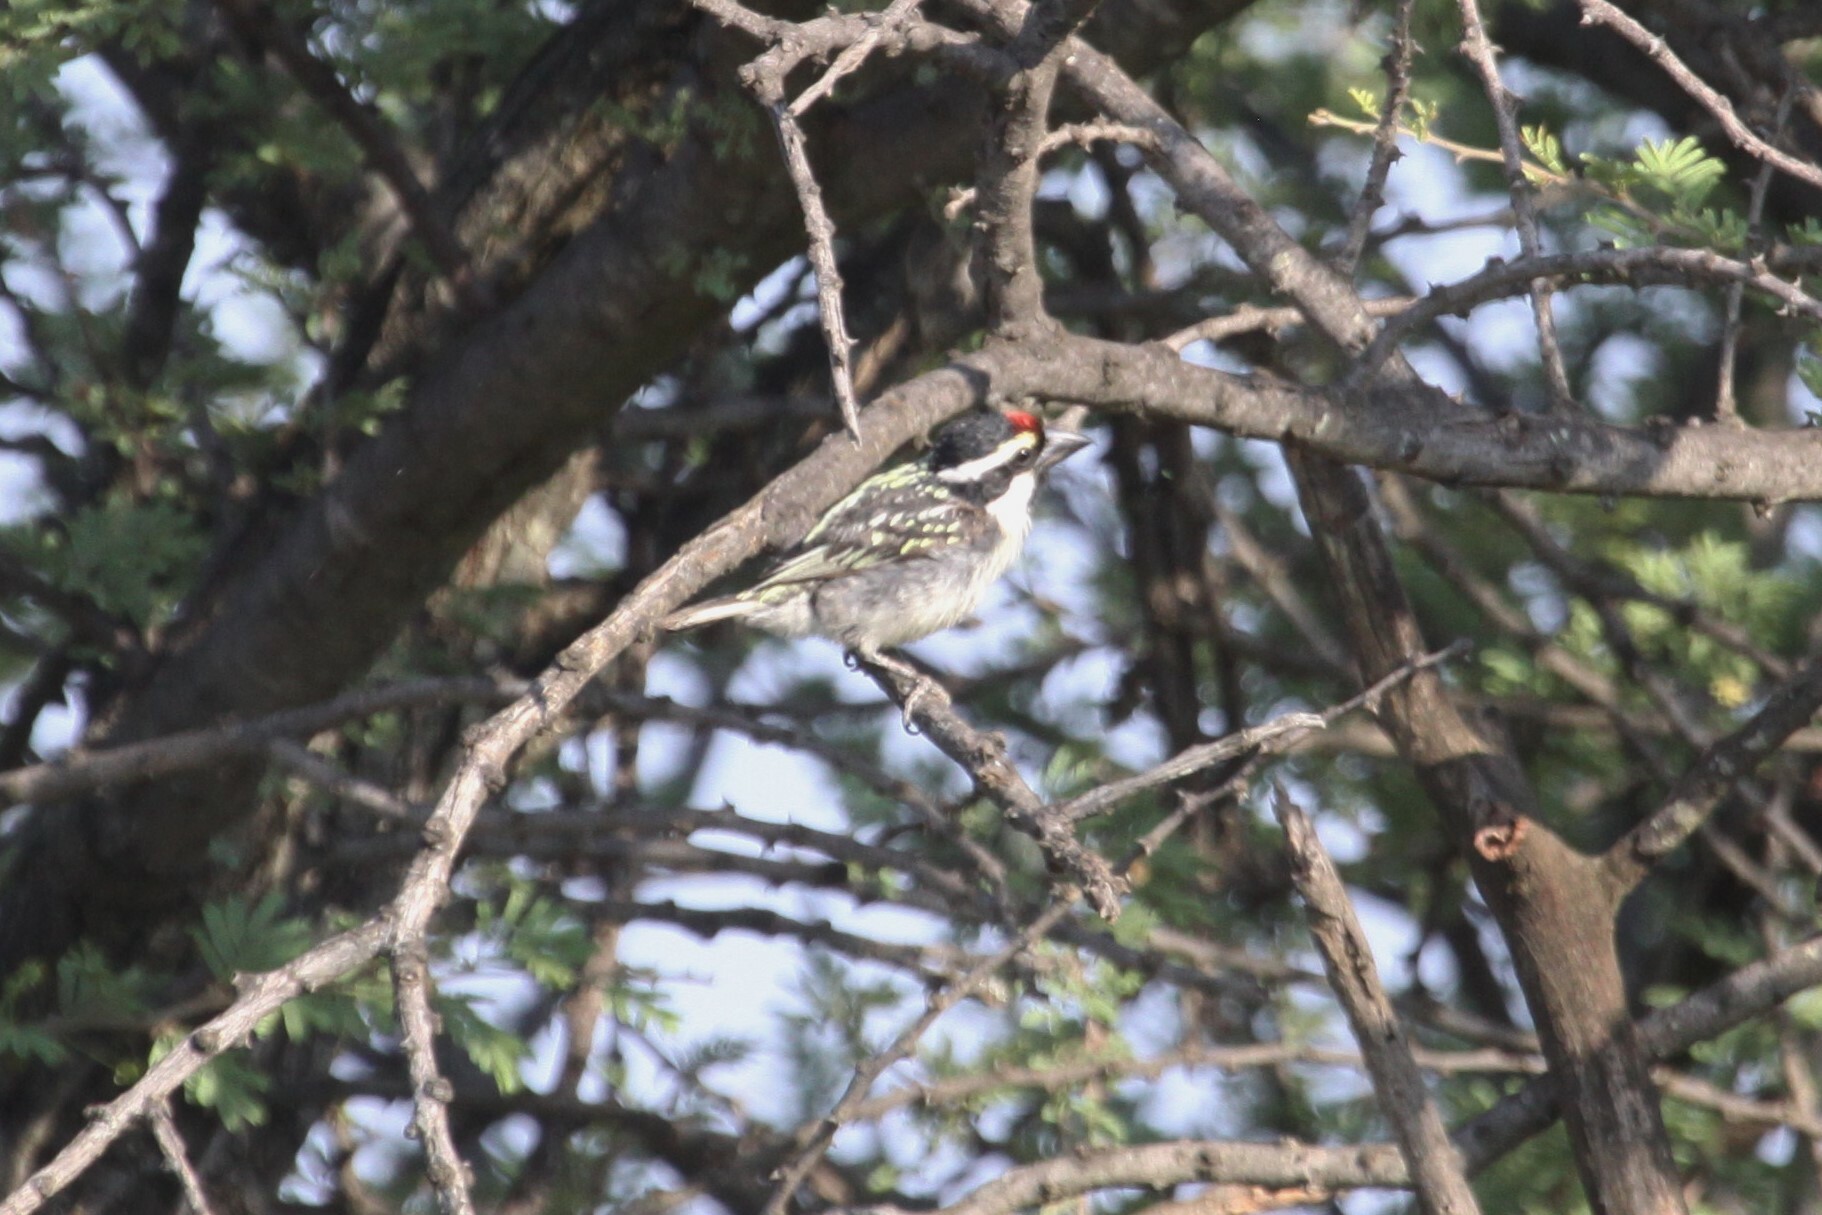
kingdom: Animalia
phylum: Chordata
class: Aves
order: Piciformes
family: Lybiidae
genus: Tricholaema
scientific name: Tricholaema leucomelas
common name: Acacia pied barbet
